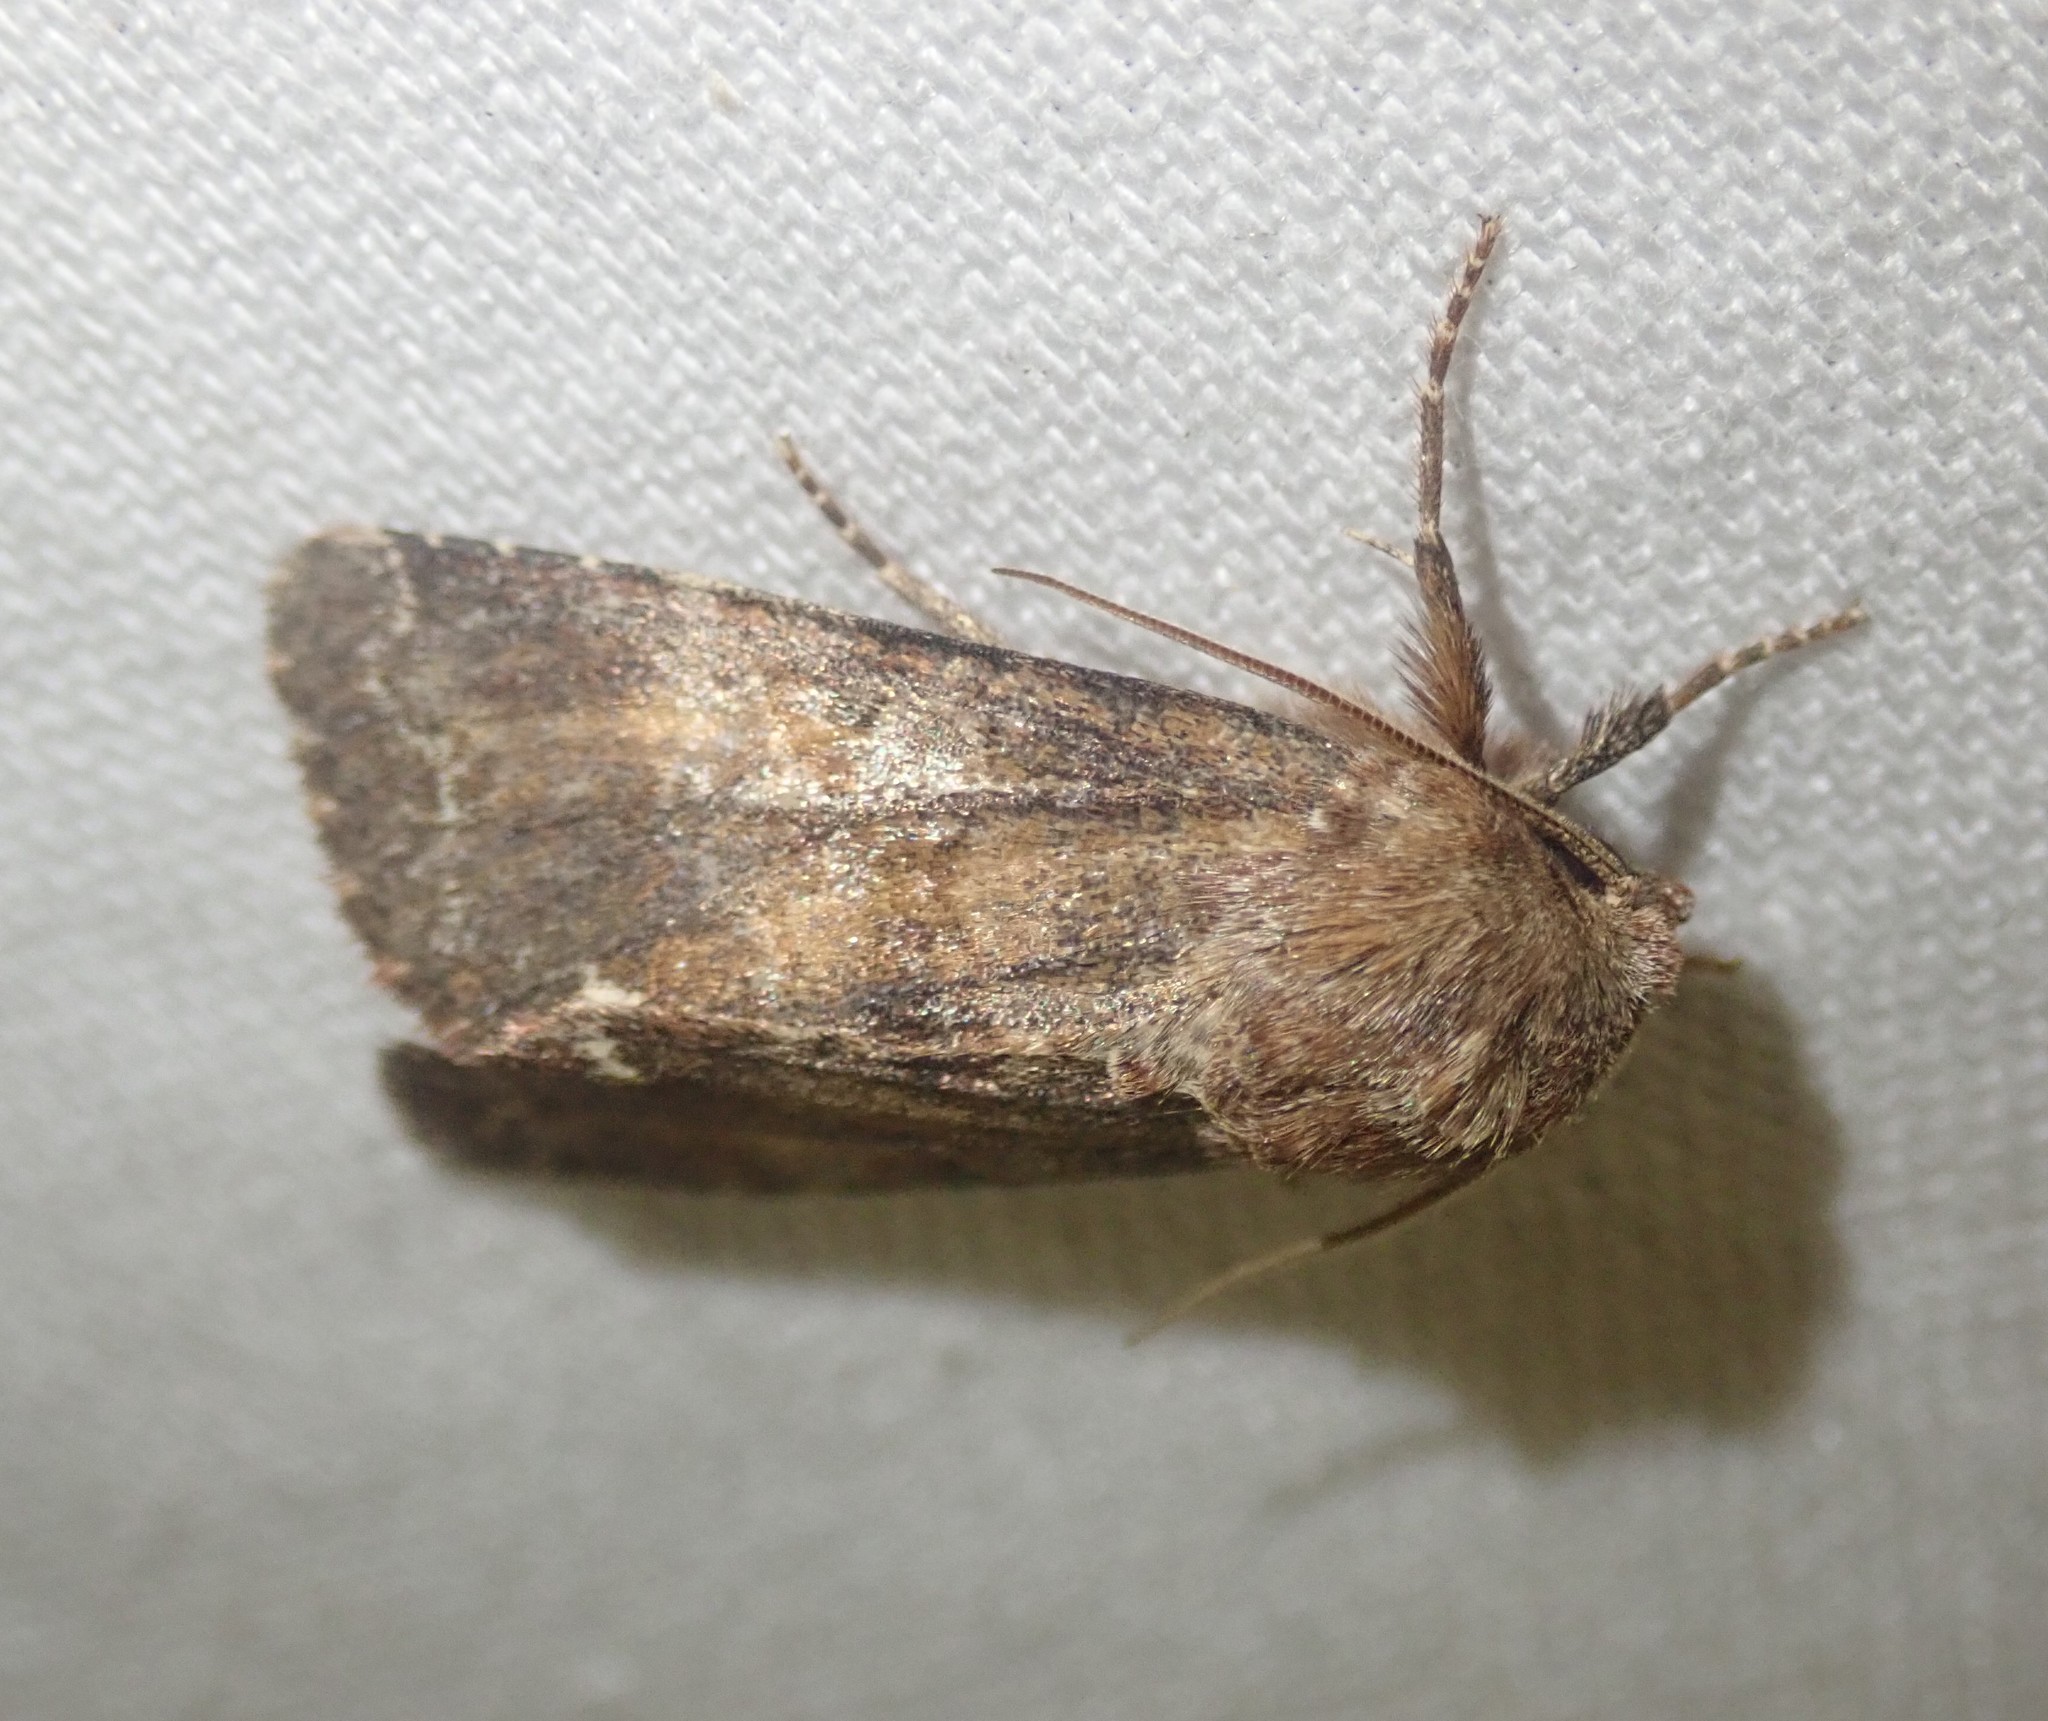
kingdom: Animalia
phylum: Arthropoda
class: Insecta
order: Lepidoptera
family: Noctuidae
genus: Ceramica
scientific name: Ceramica pisi
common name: Broom moth
